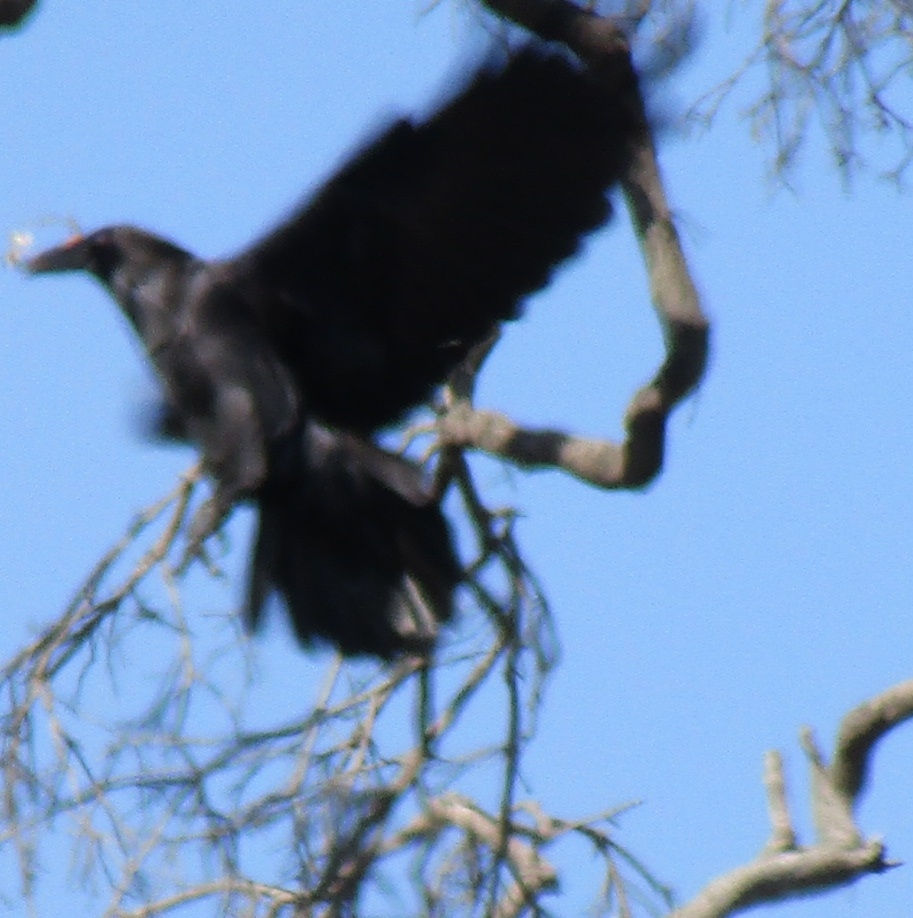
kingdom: Animalia
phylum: Chordata
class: Aves
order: Passeriformes
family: Corvidae
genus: Corvus
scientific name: Corvus corax
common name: Common raven
